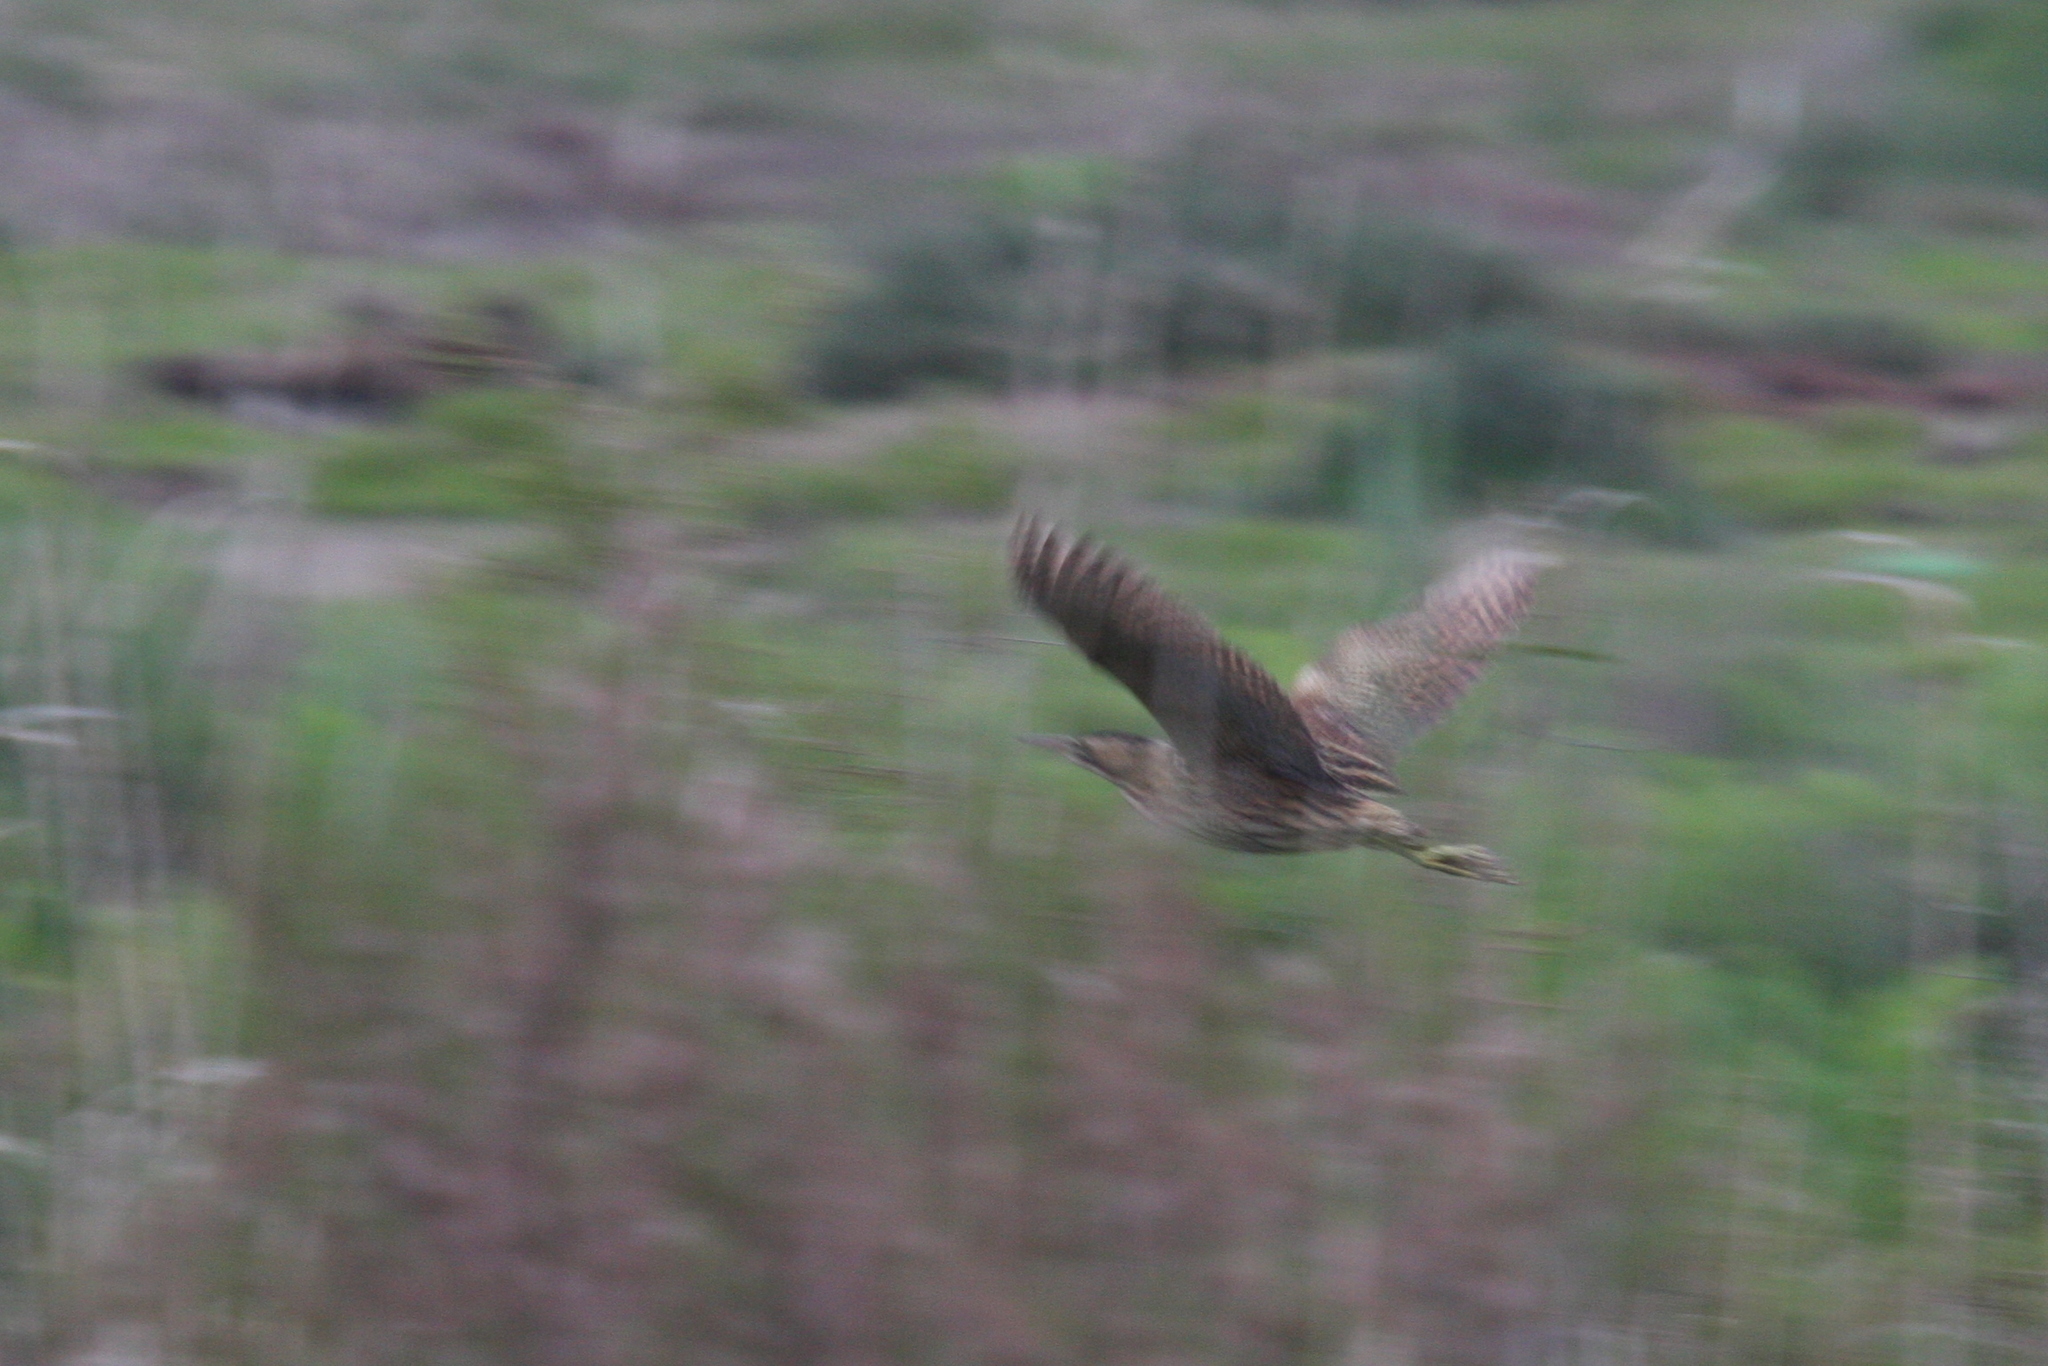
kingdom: Animalia
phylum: Chordata
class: Aves
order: Pelecaniformes
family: Ardeidae
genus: Botaurus
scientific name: Botaurus stellaris
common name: Eurasian bittern
